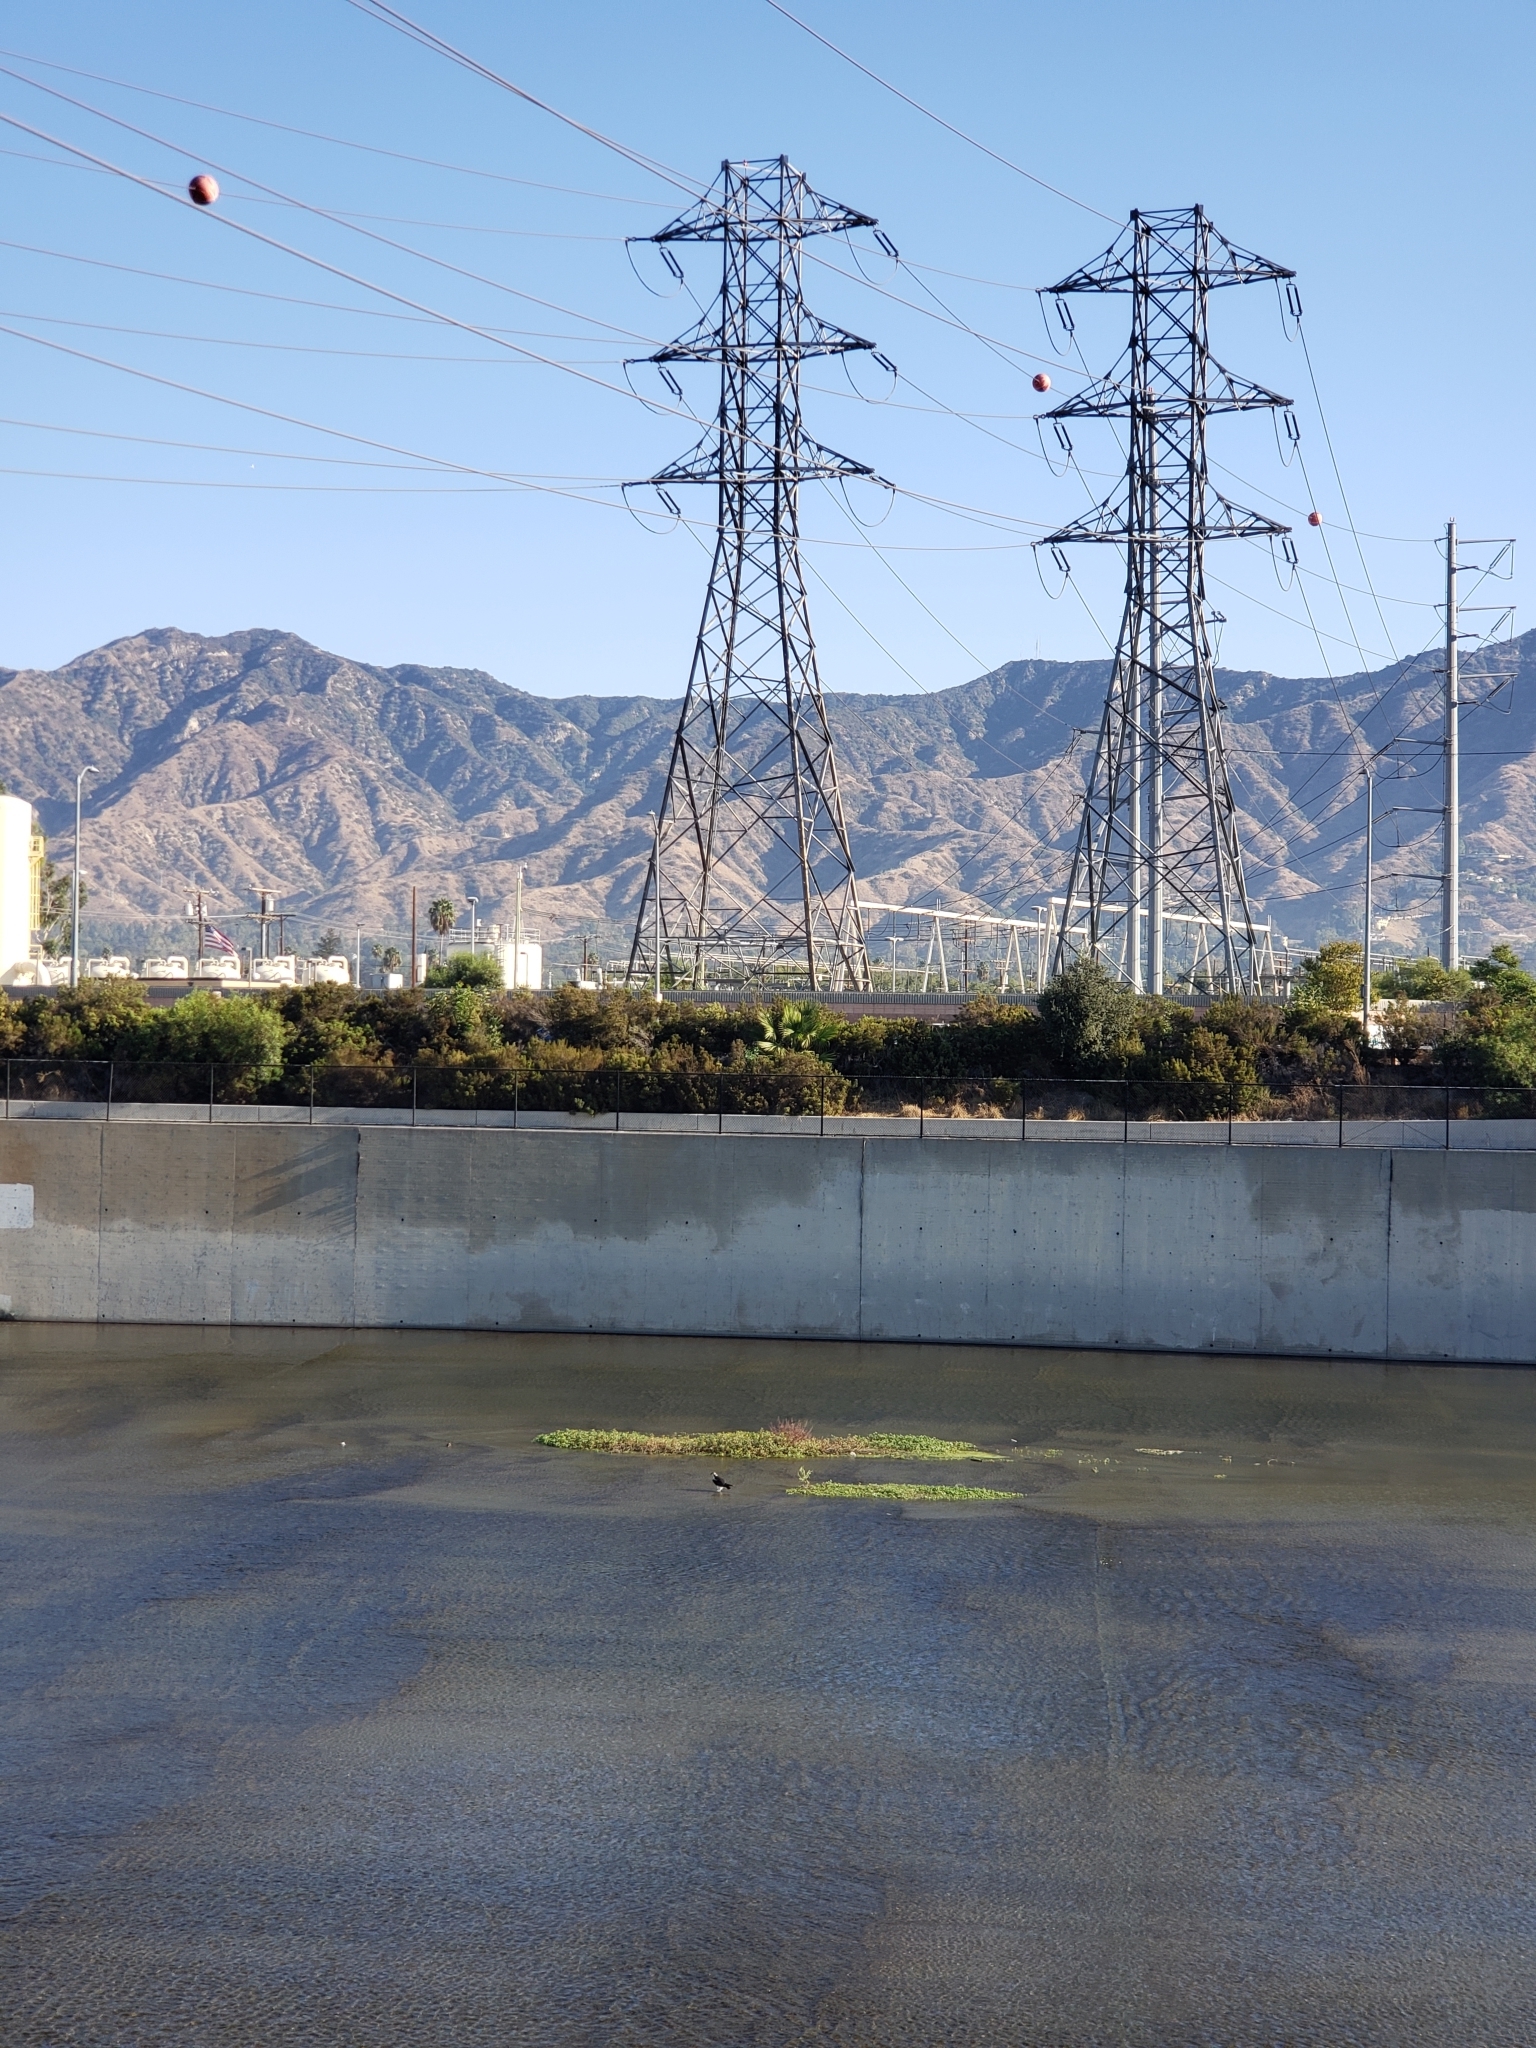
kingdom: Animalia
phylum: Chordata
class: Aves
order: Accipitriformes
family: Pandionidae
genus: Pandion
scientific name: Pandion haliaetus
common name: Osprey
